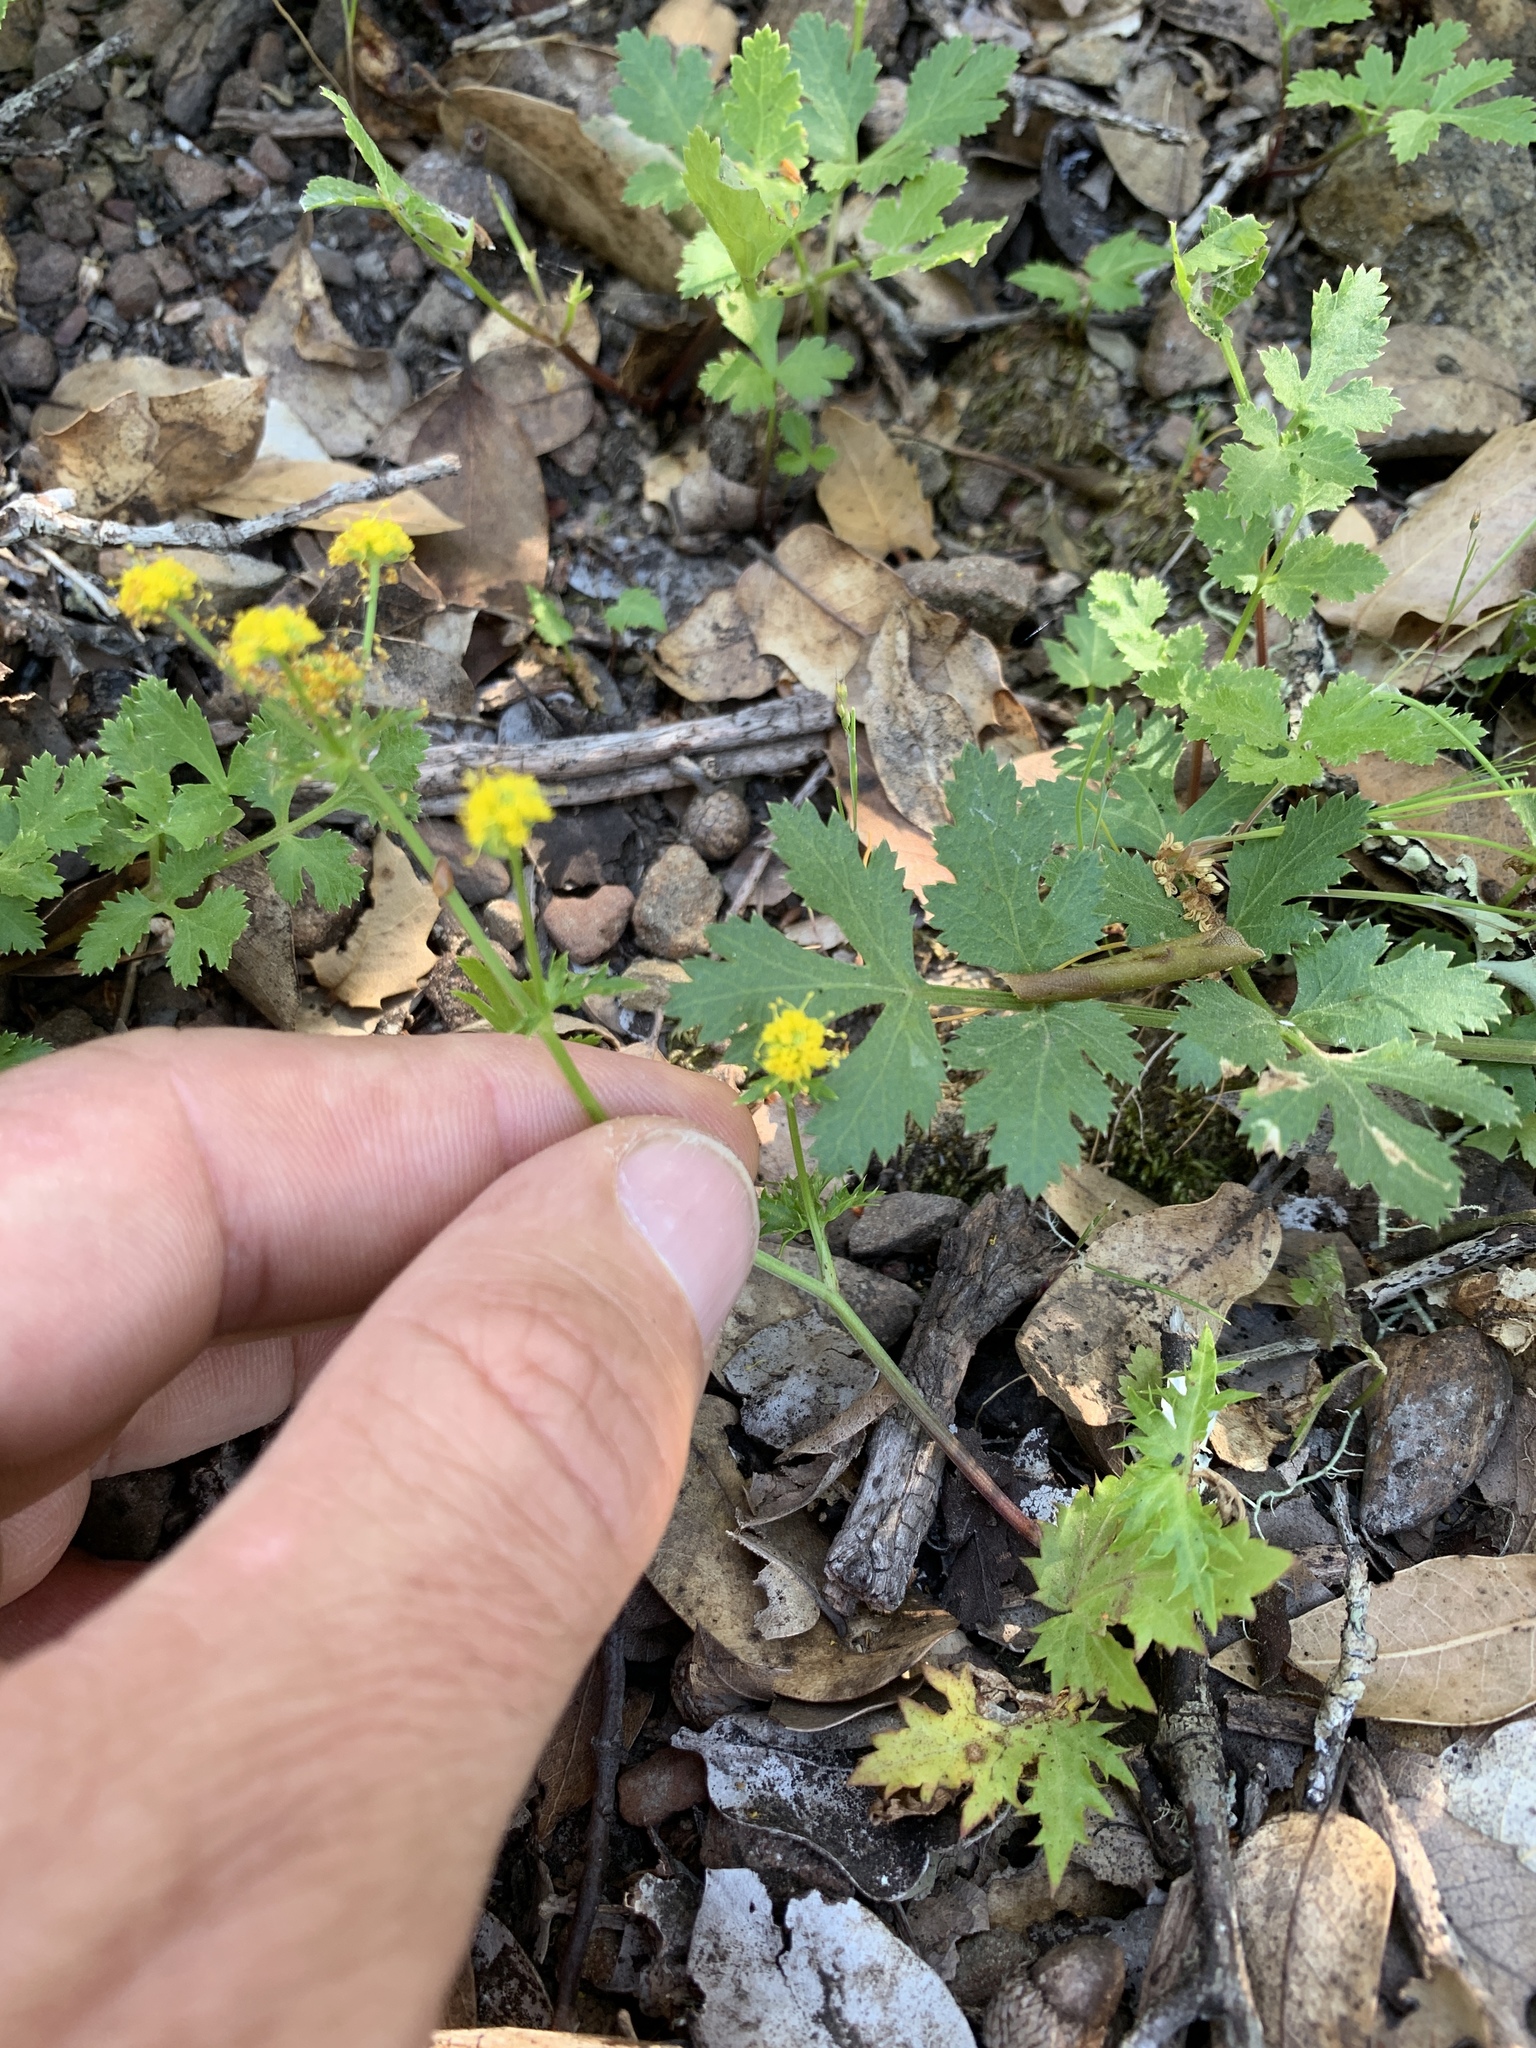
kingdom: Plantae
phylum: Tracheophyta
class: Magnoliopsida
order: Apiales
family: Apiaceae
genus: Sanicula
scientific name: Sanicula laciniata
